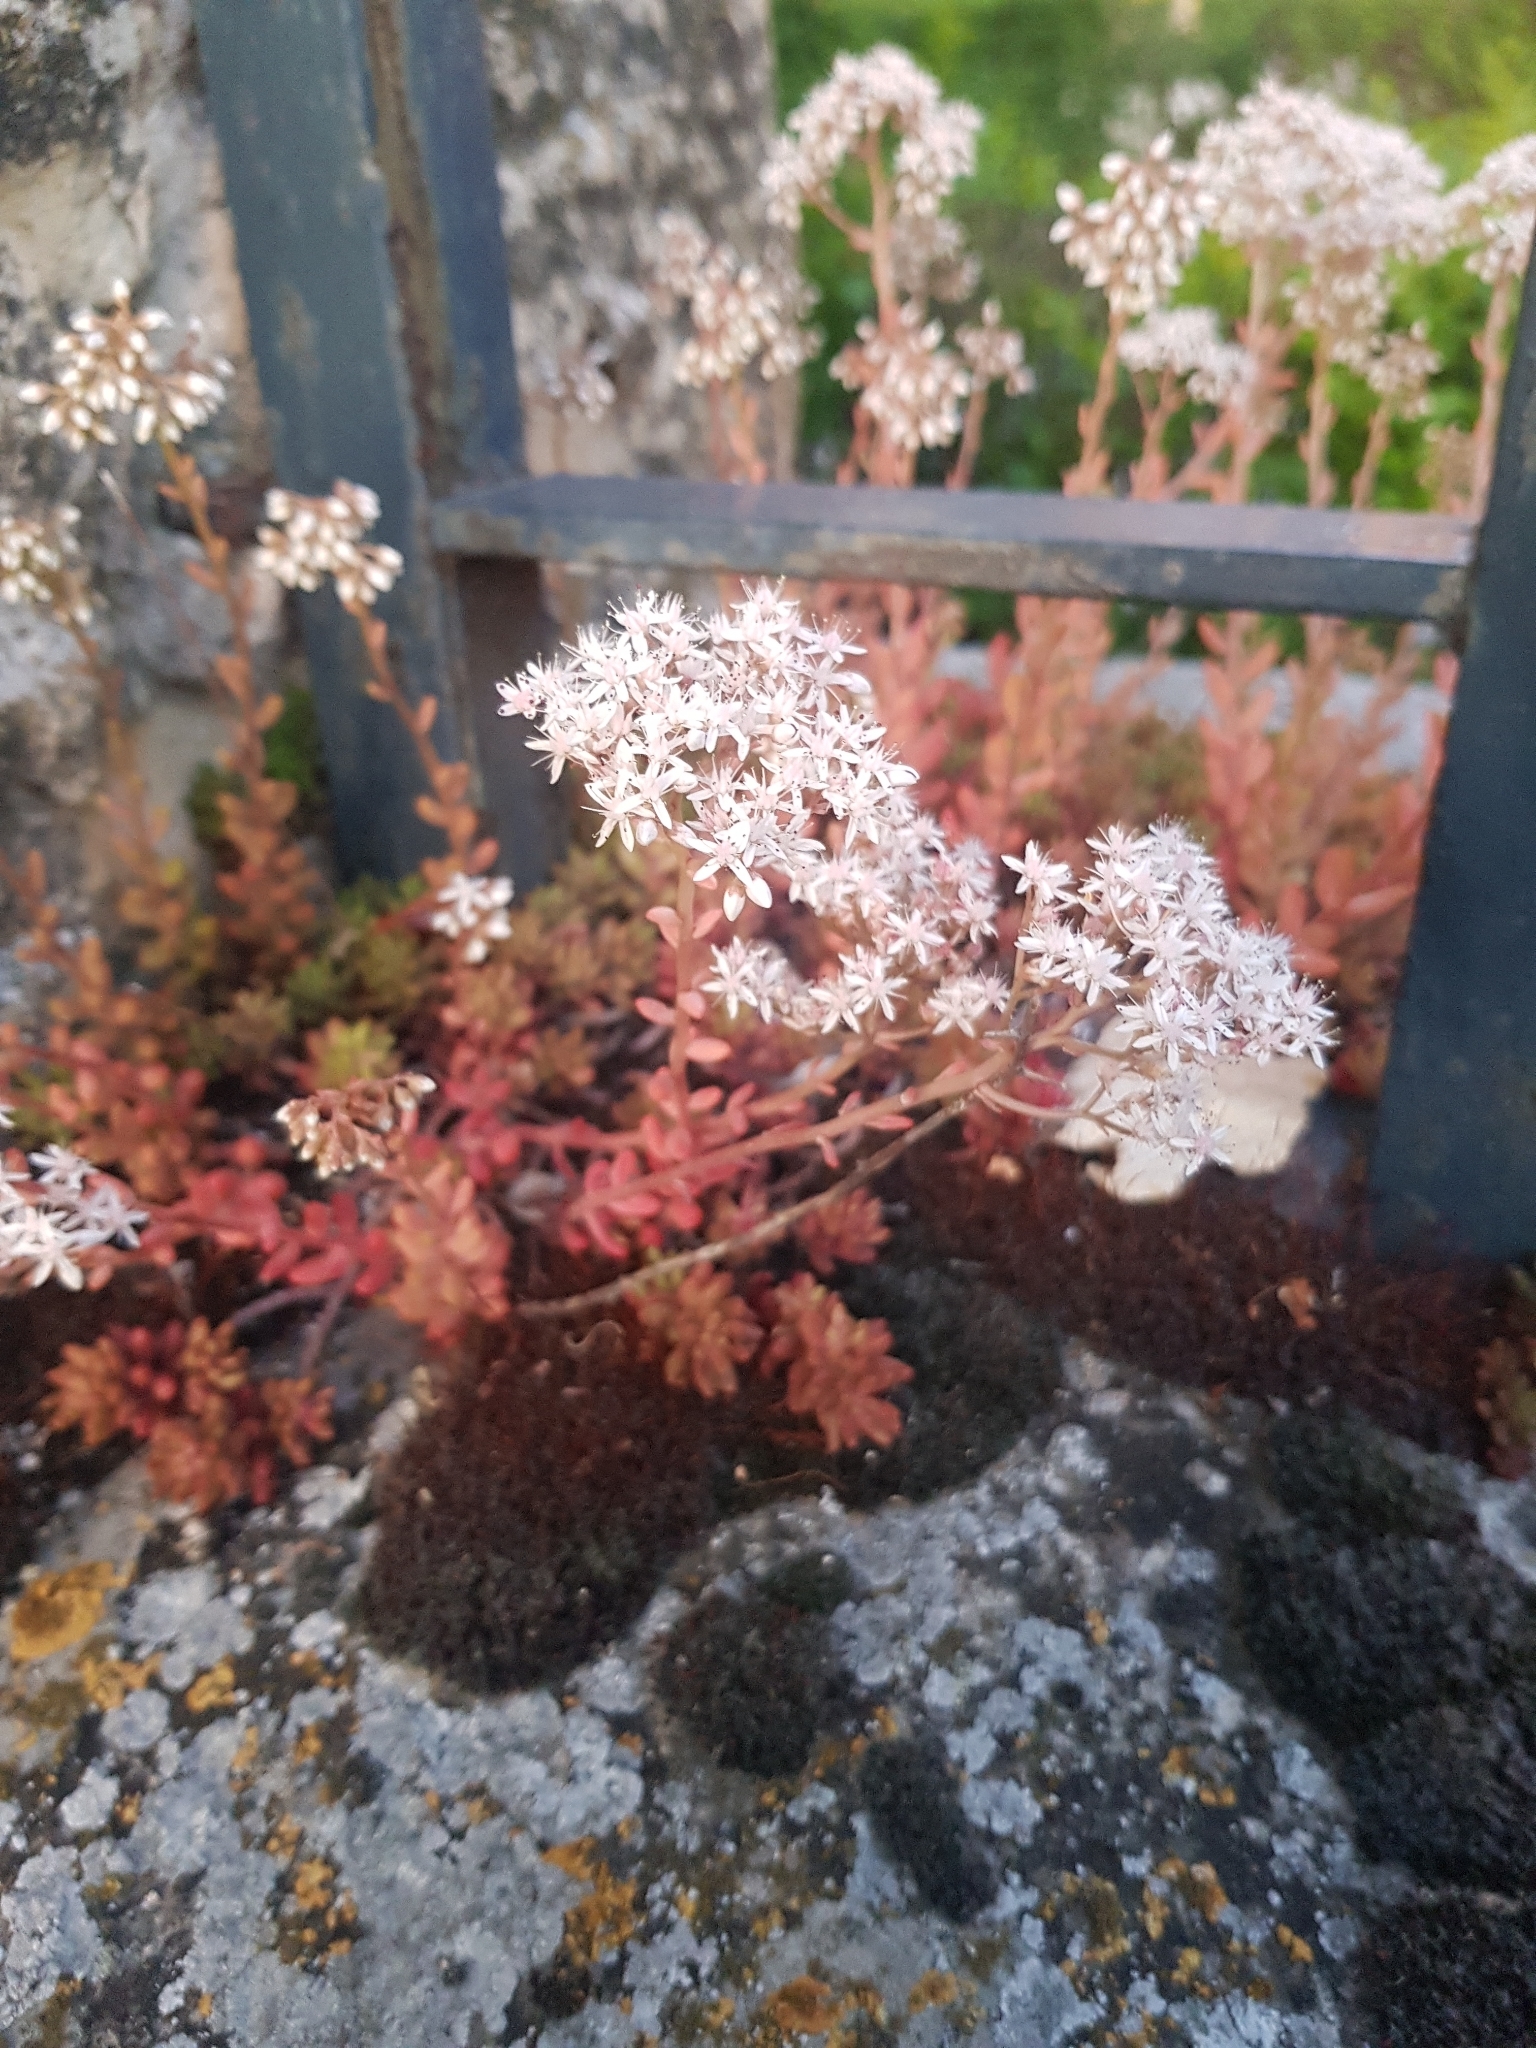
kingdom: Plantae
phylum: Tracheophyta
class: Magnoliopsida
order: Saxifragales
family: Crassulaceae
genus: Sedum
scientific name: Sedum album
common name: White stonecrop
